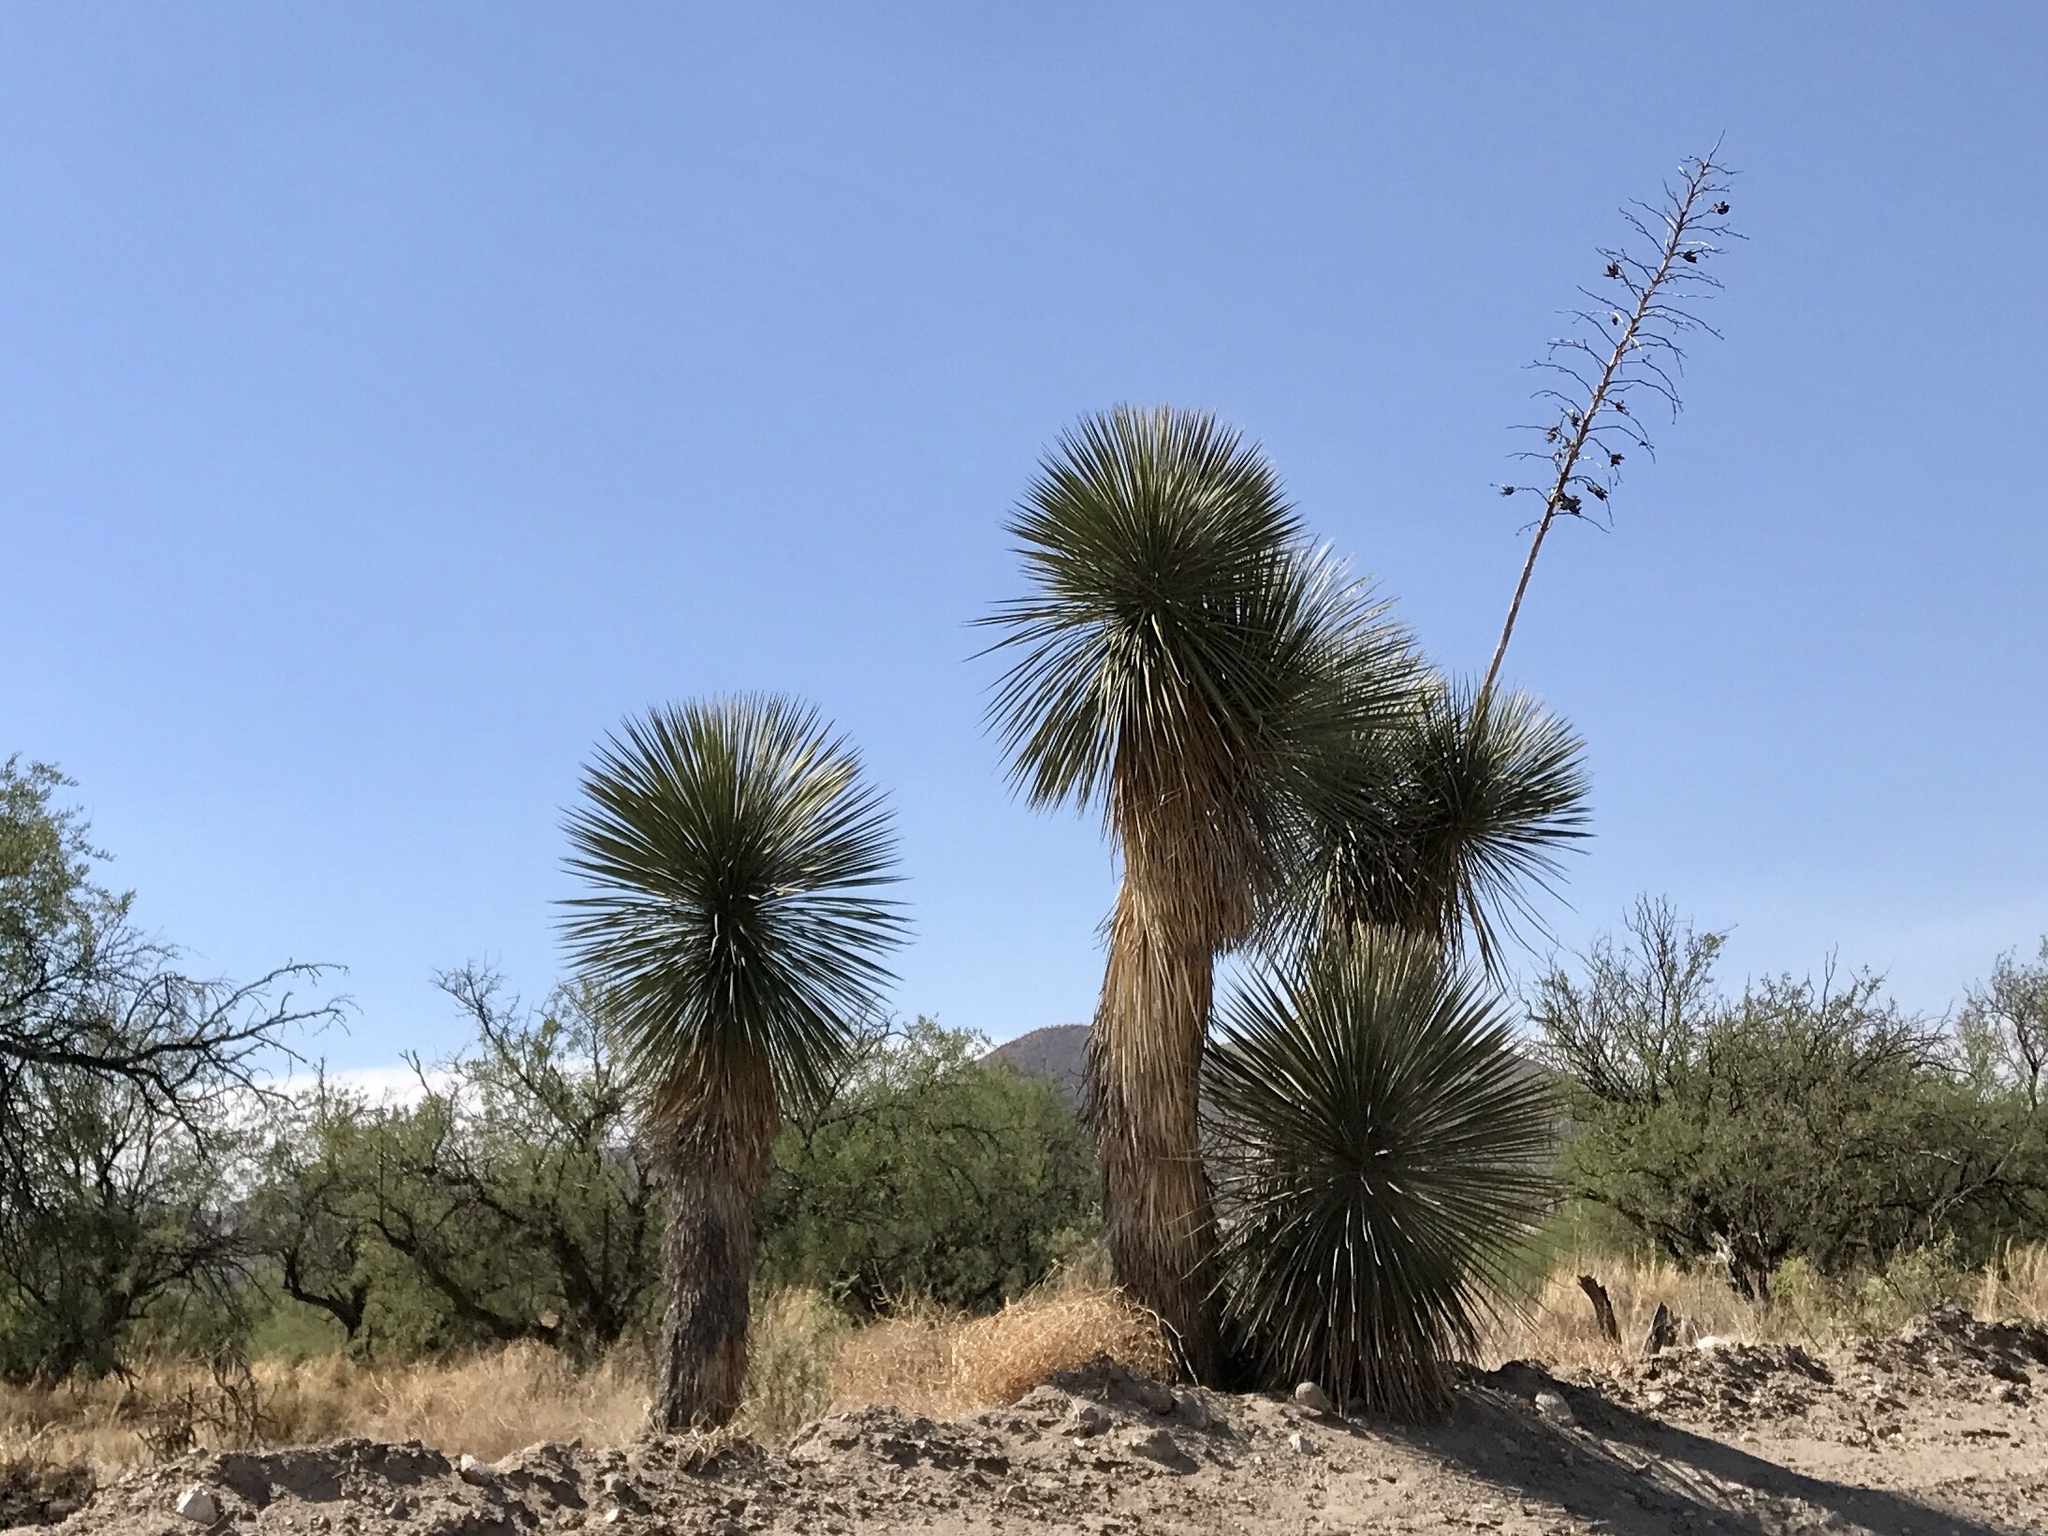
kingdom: Plantae
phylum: Tracheophyta
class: Liliopsida
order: Asparagales
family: Asparagaceae
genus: Yucca
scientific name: Yucca elata
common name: Palmella
